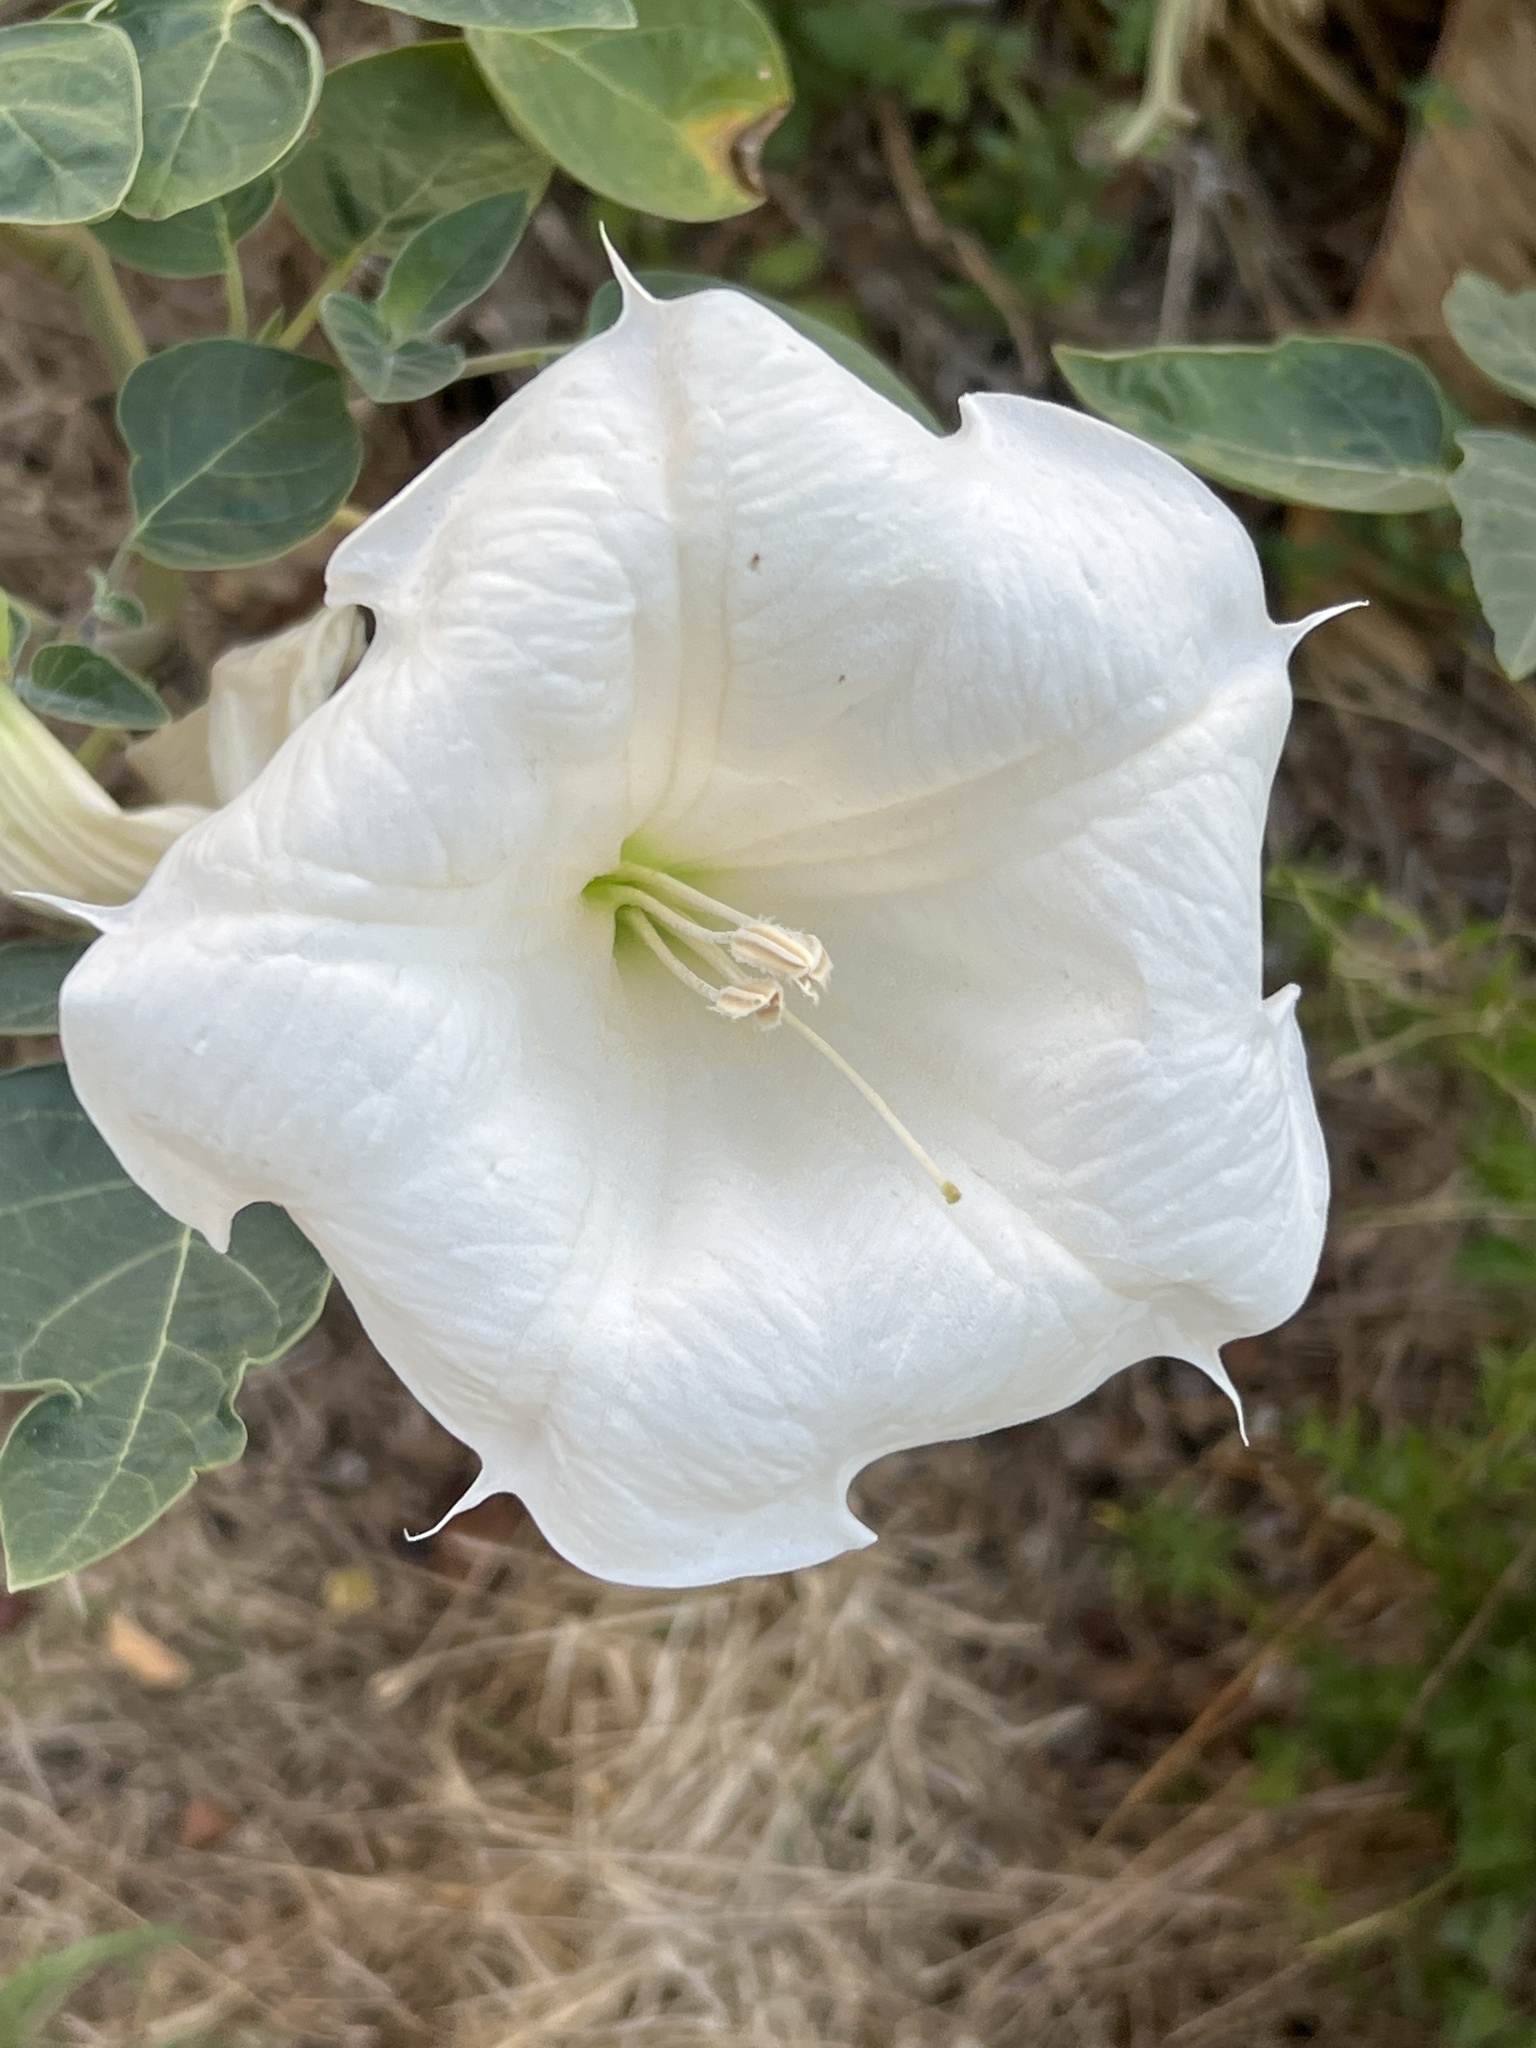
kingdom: Plantae
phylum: Tracheophyta
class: Magnoliopsida
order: Solanales
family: Solanaceae
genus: Datura
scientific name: Datura wrightii
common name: Sacred thorn-apple
